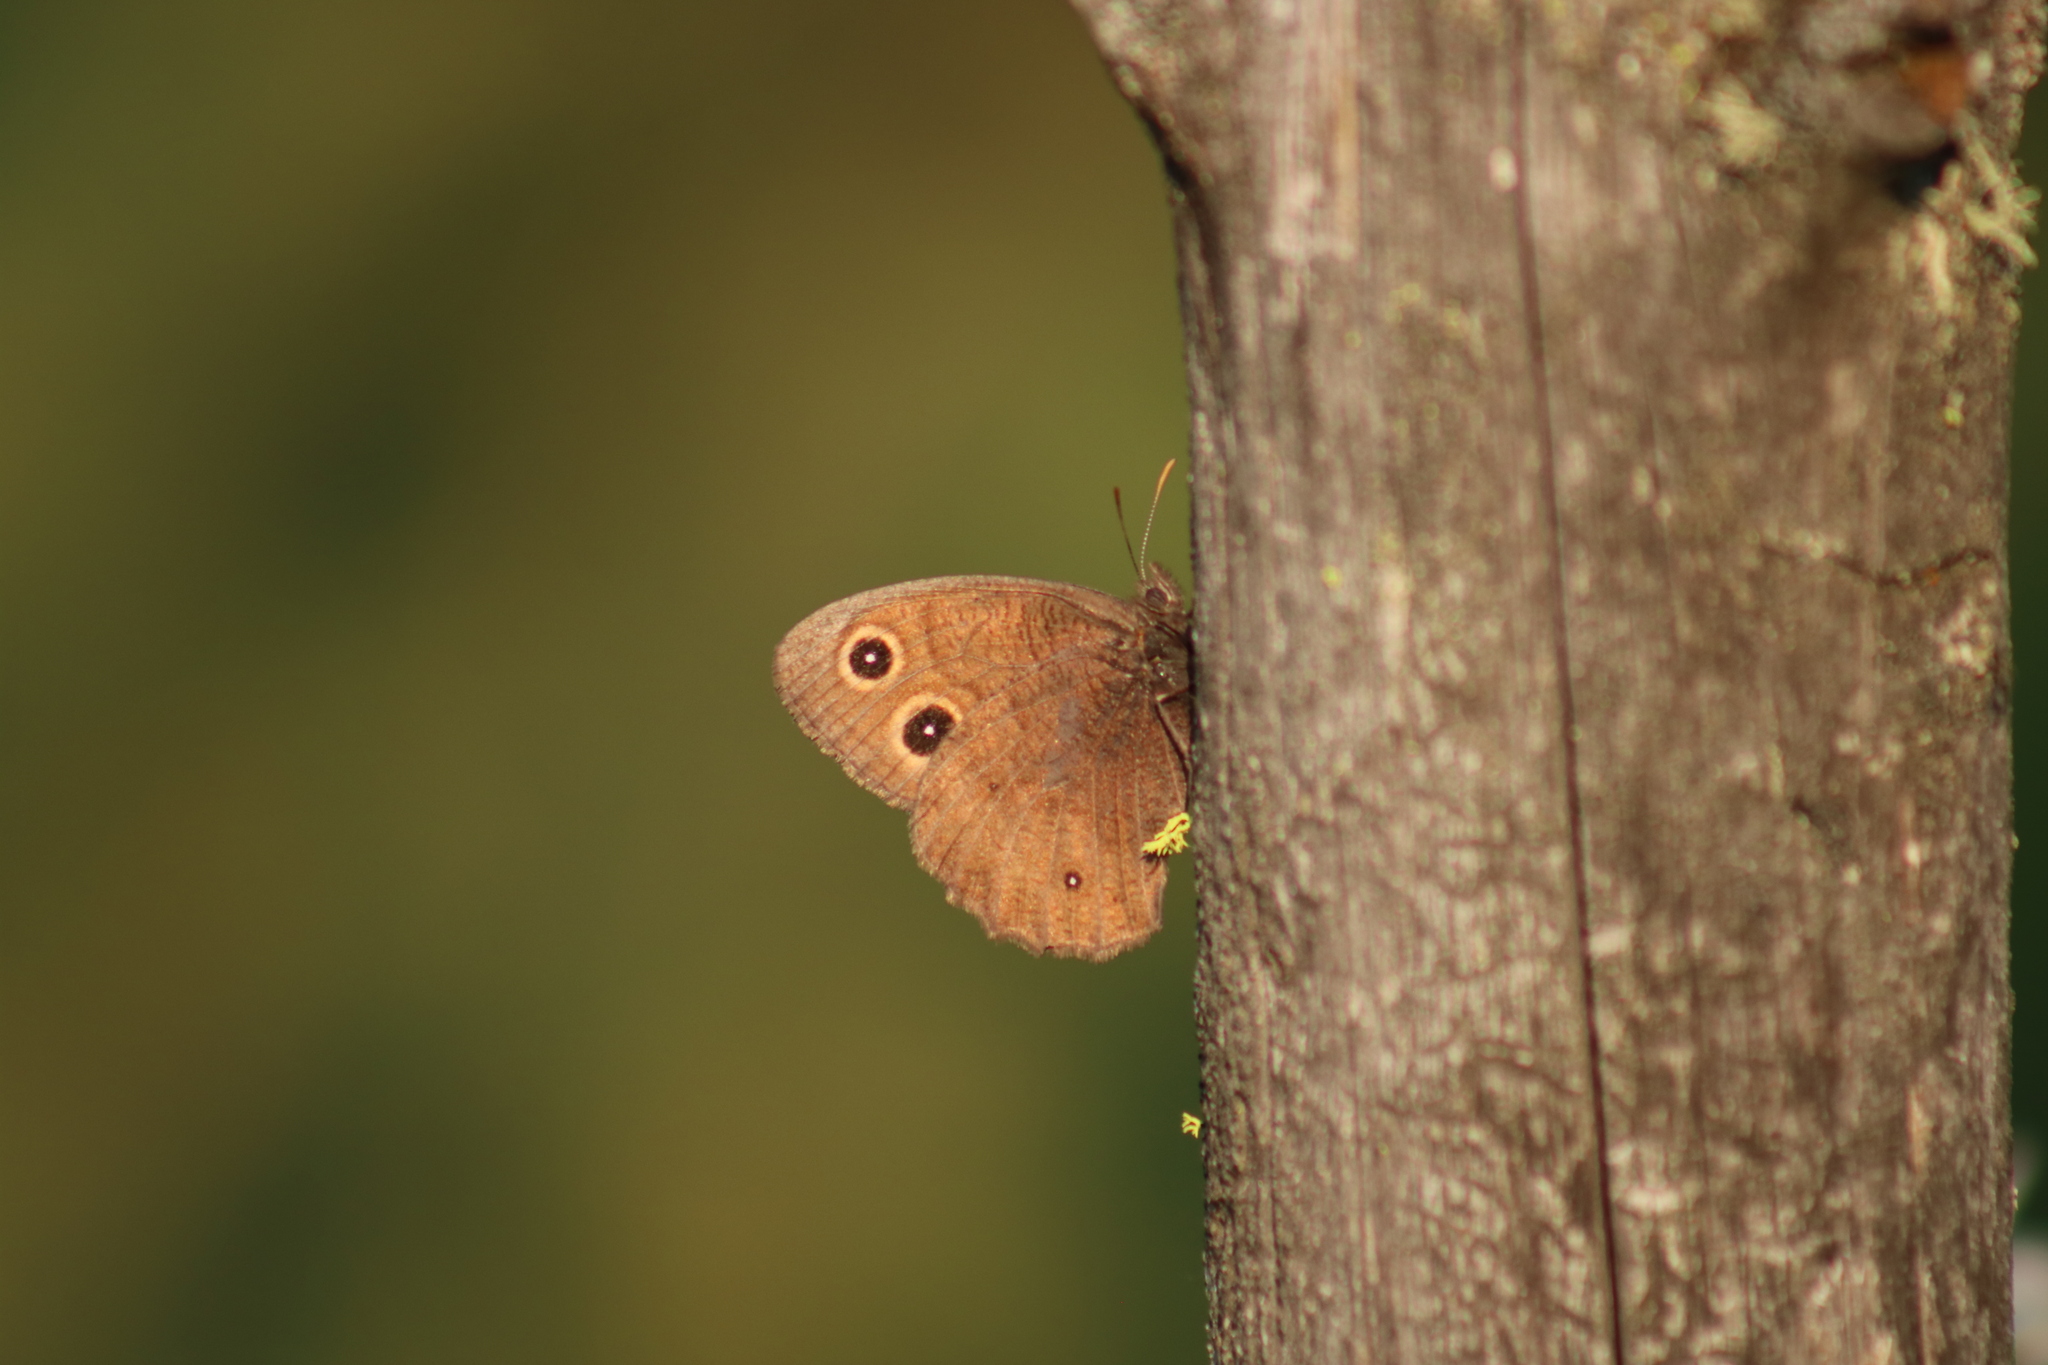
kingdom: Animalia
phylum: Arthropoda
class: Insecta
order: Lepidoptera
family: Nymphalidae
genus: Cercyonis
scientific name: Cercyonis pegala
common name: Common wood-nymph
